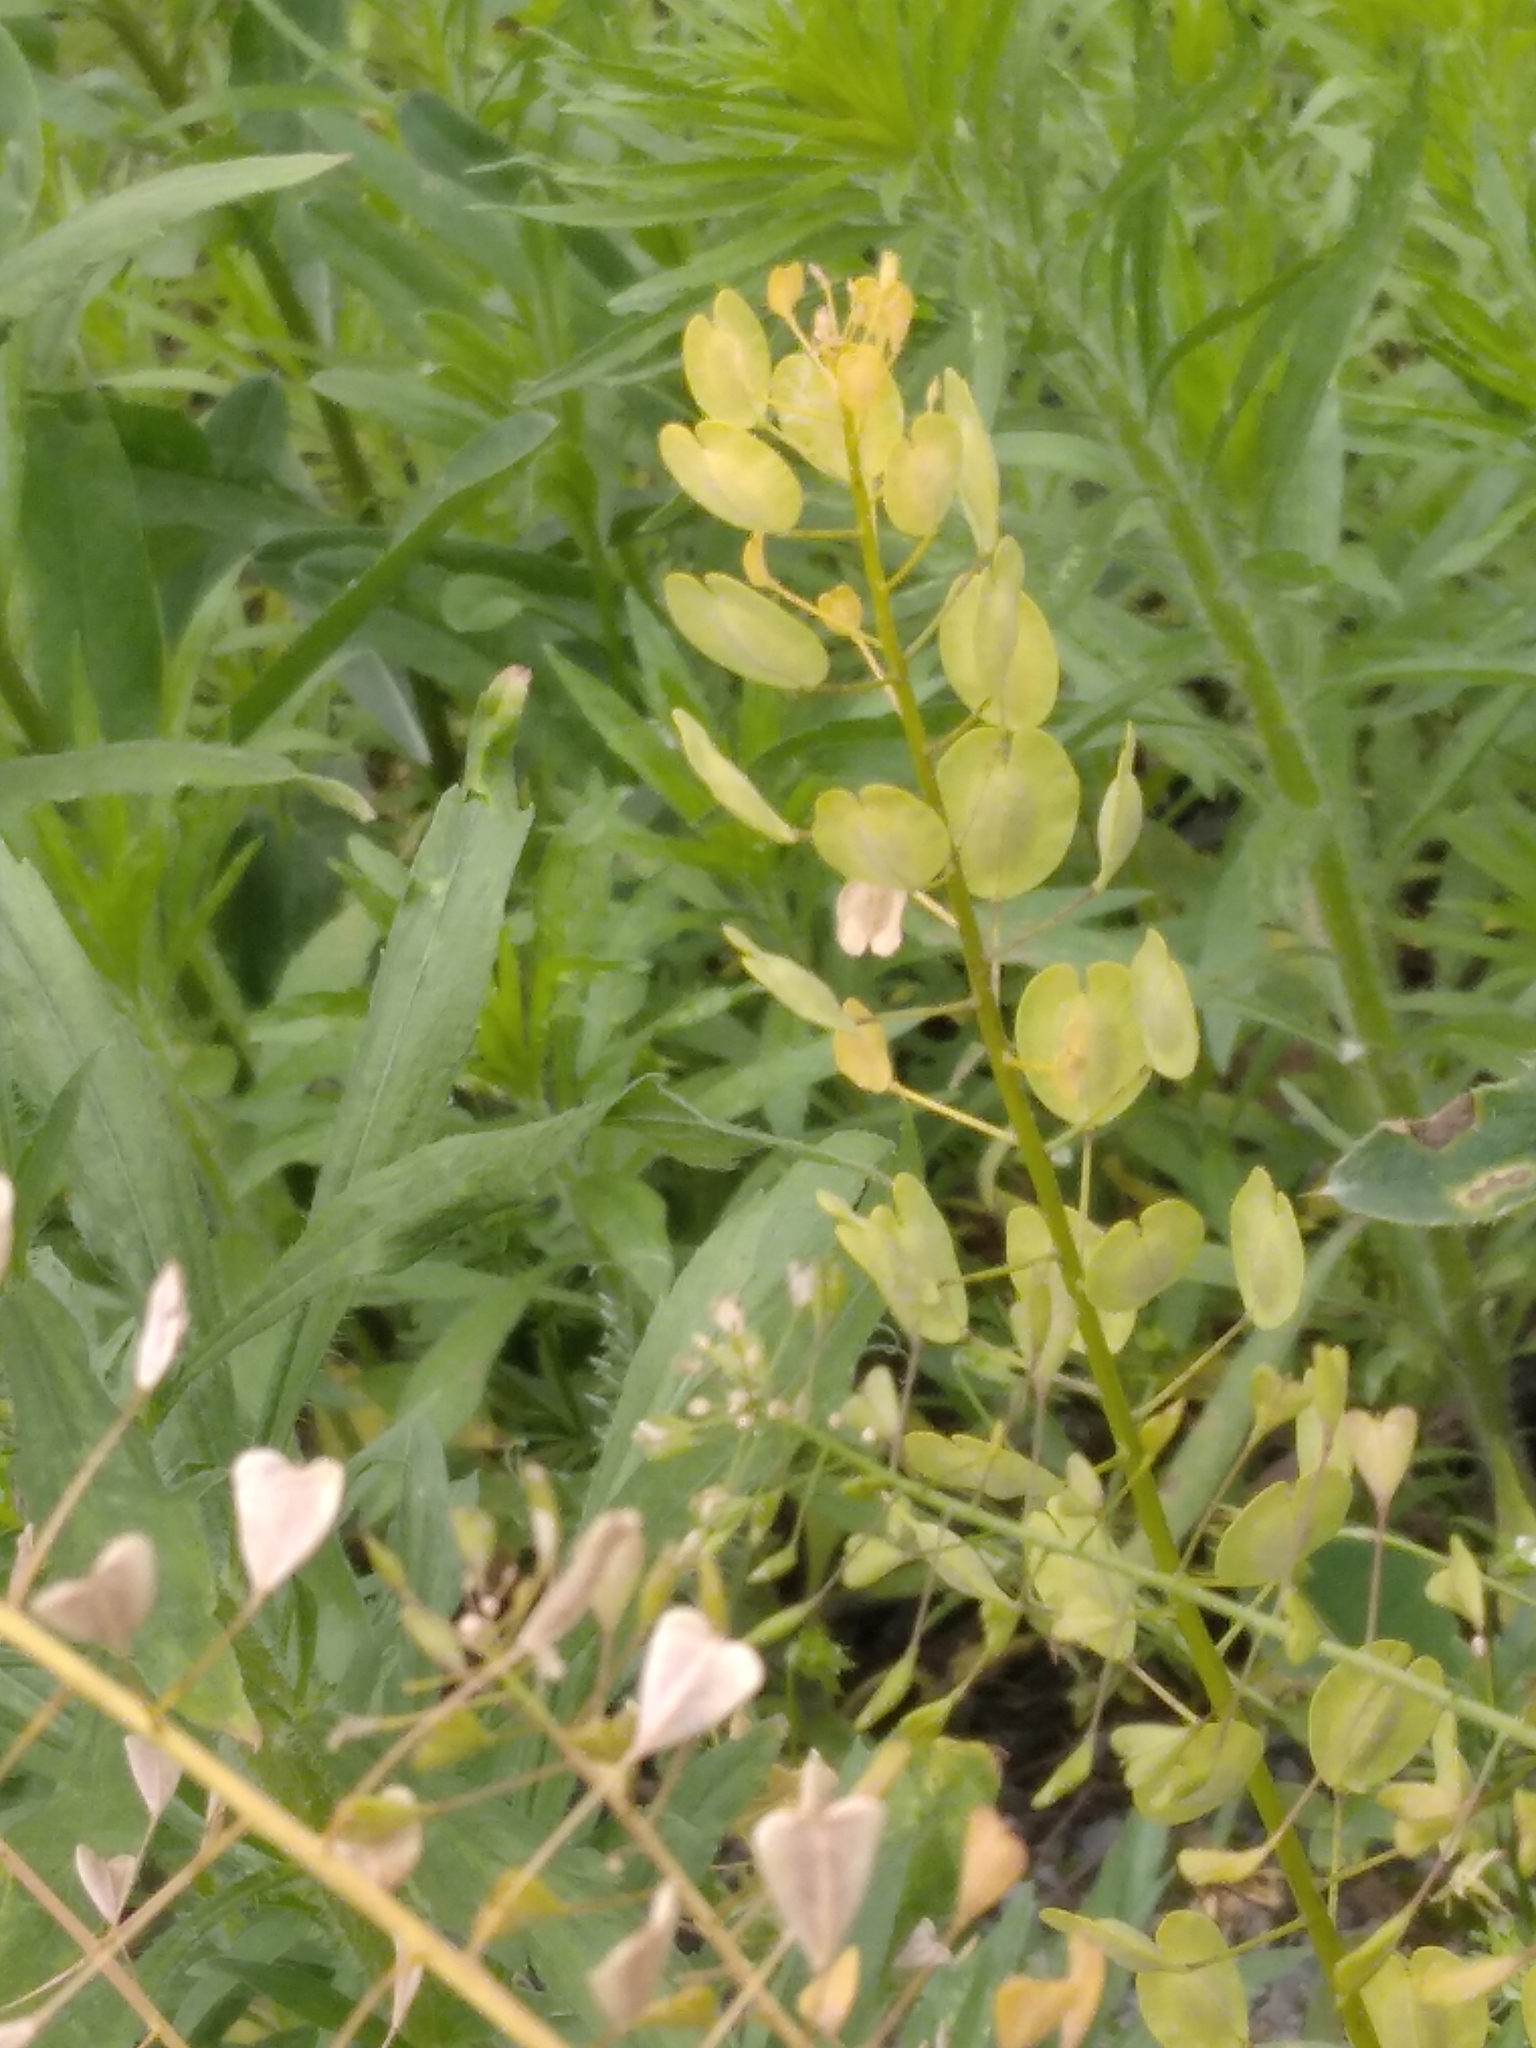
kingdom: Plantae
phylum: Tracheophyta
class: Magnoliopsida
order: Brassicales
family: Brassicaceae
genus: Thlaspi
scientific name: Thlaspi arvense
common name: Field pennycress
